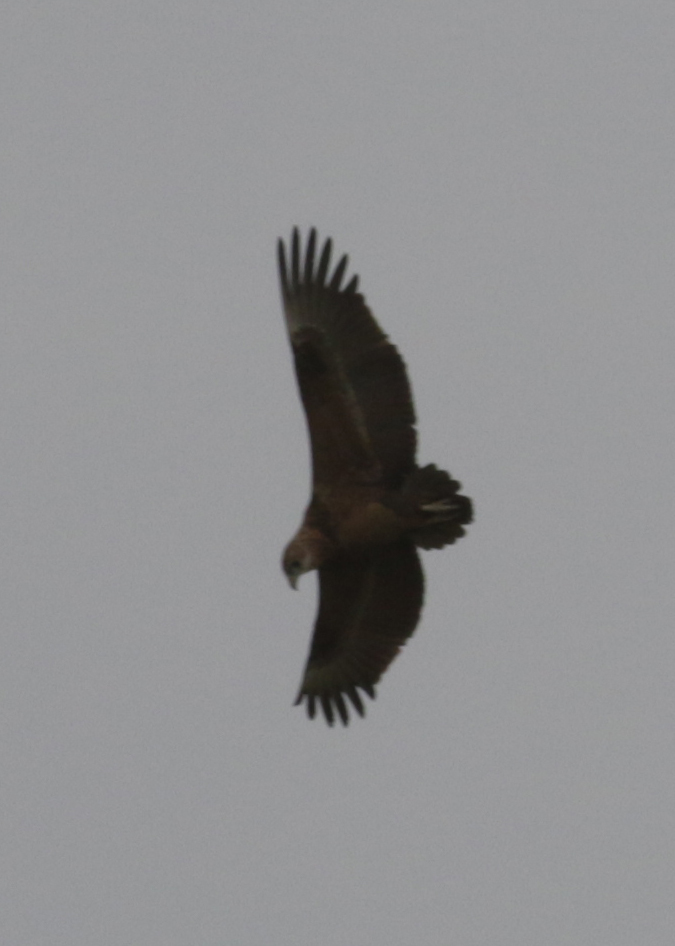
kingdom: Animalia
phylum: Chordata
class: Aves
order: Accipitriformes
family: Accipitridae
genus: Terathopius
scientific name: Terathopius ecaudatus
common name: Bateleur
